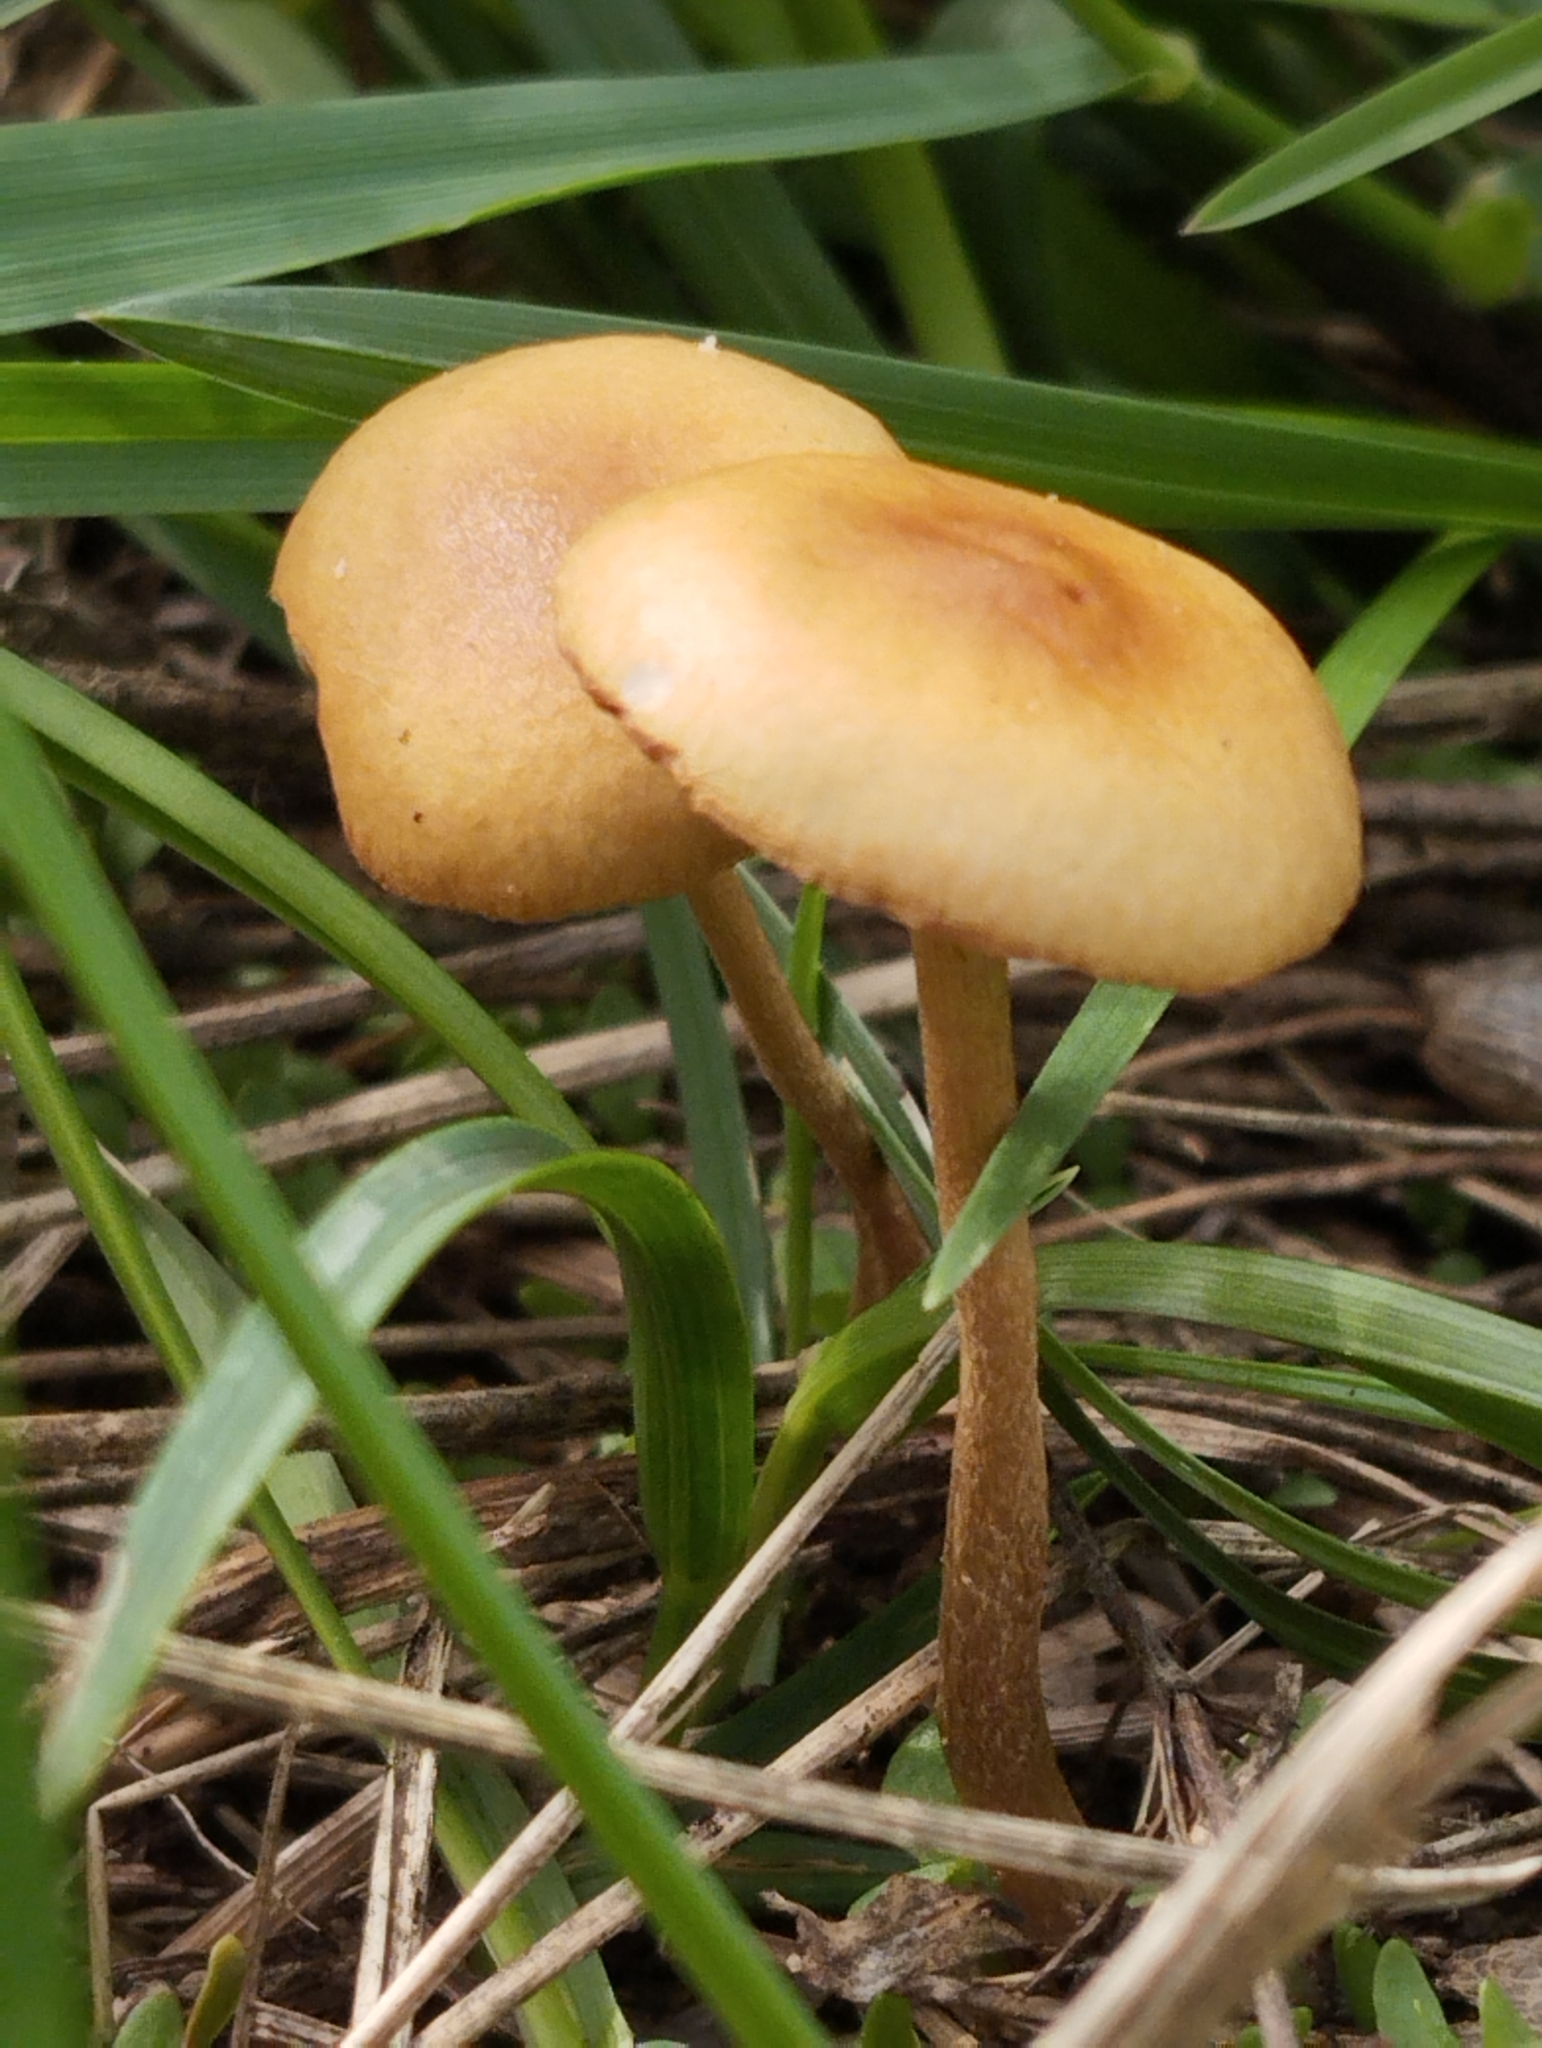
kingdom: Fungi
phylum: Basidiomycota
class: Agaricomycetes
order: Agaricales
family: Strophariaceae
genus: Agrocybe
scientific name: Agrocybe pediades
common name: Common fieldcap
